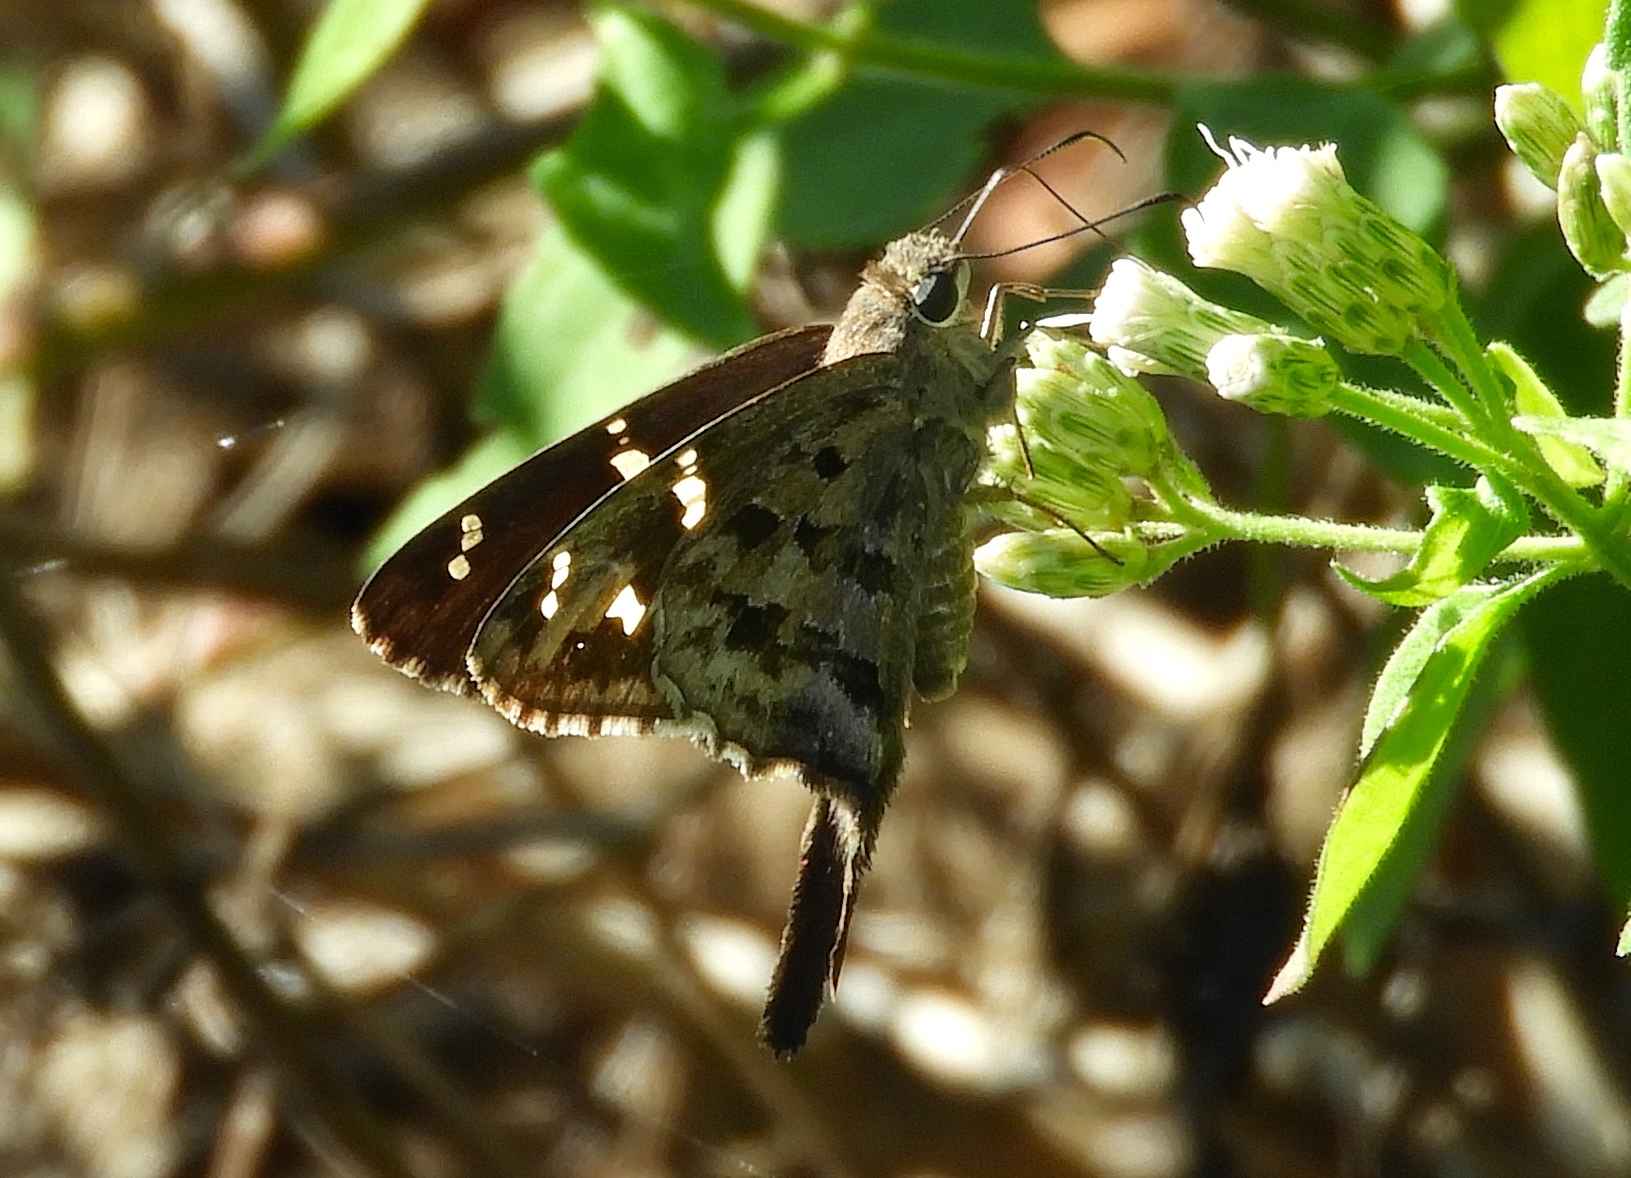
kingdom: Animalia
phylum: Arthropoda
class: Insecta
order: Lepidoptera
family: Hesperiidae
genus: Thorybes
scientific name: Thorybes
